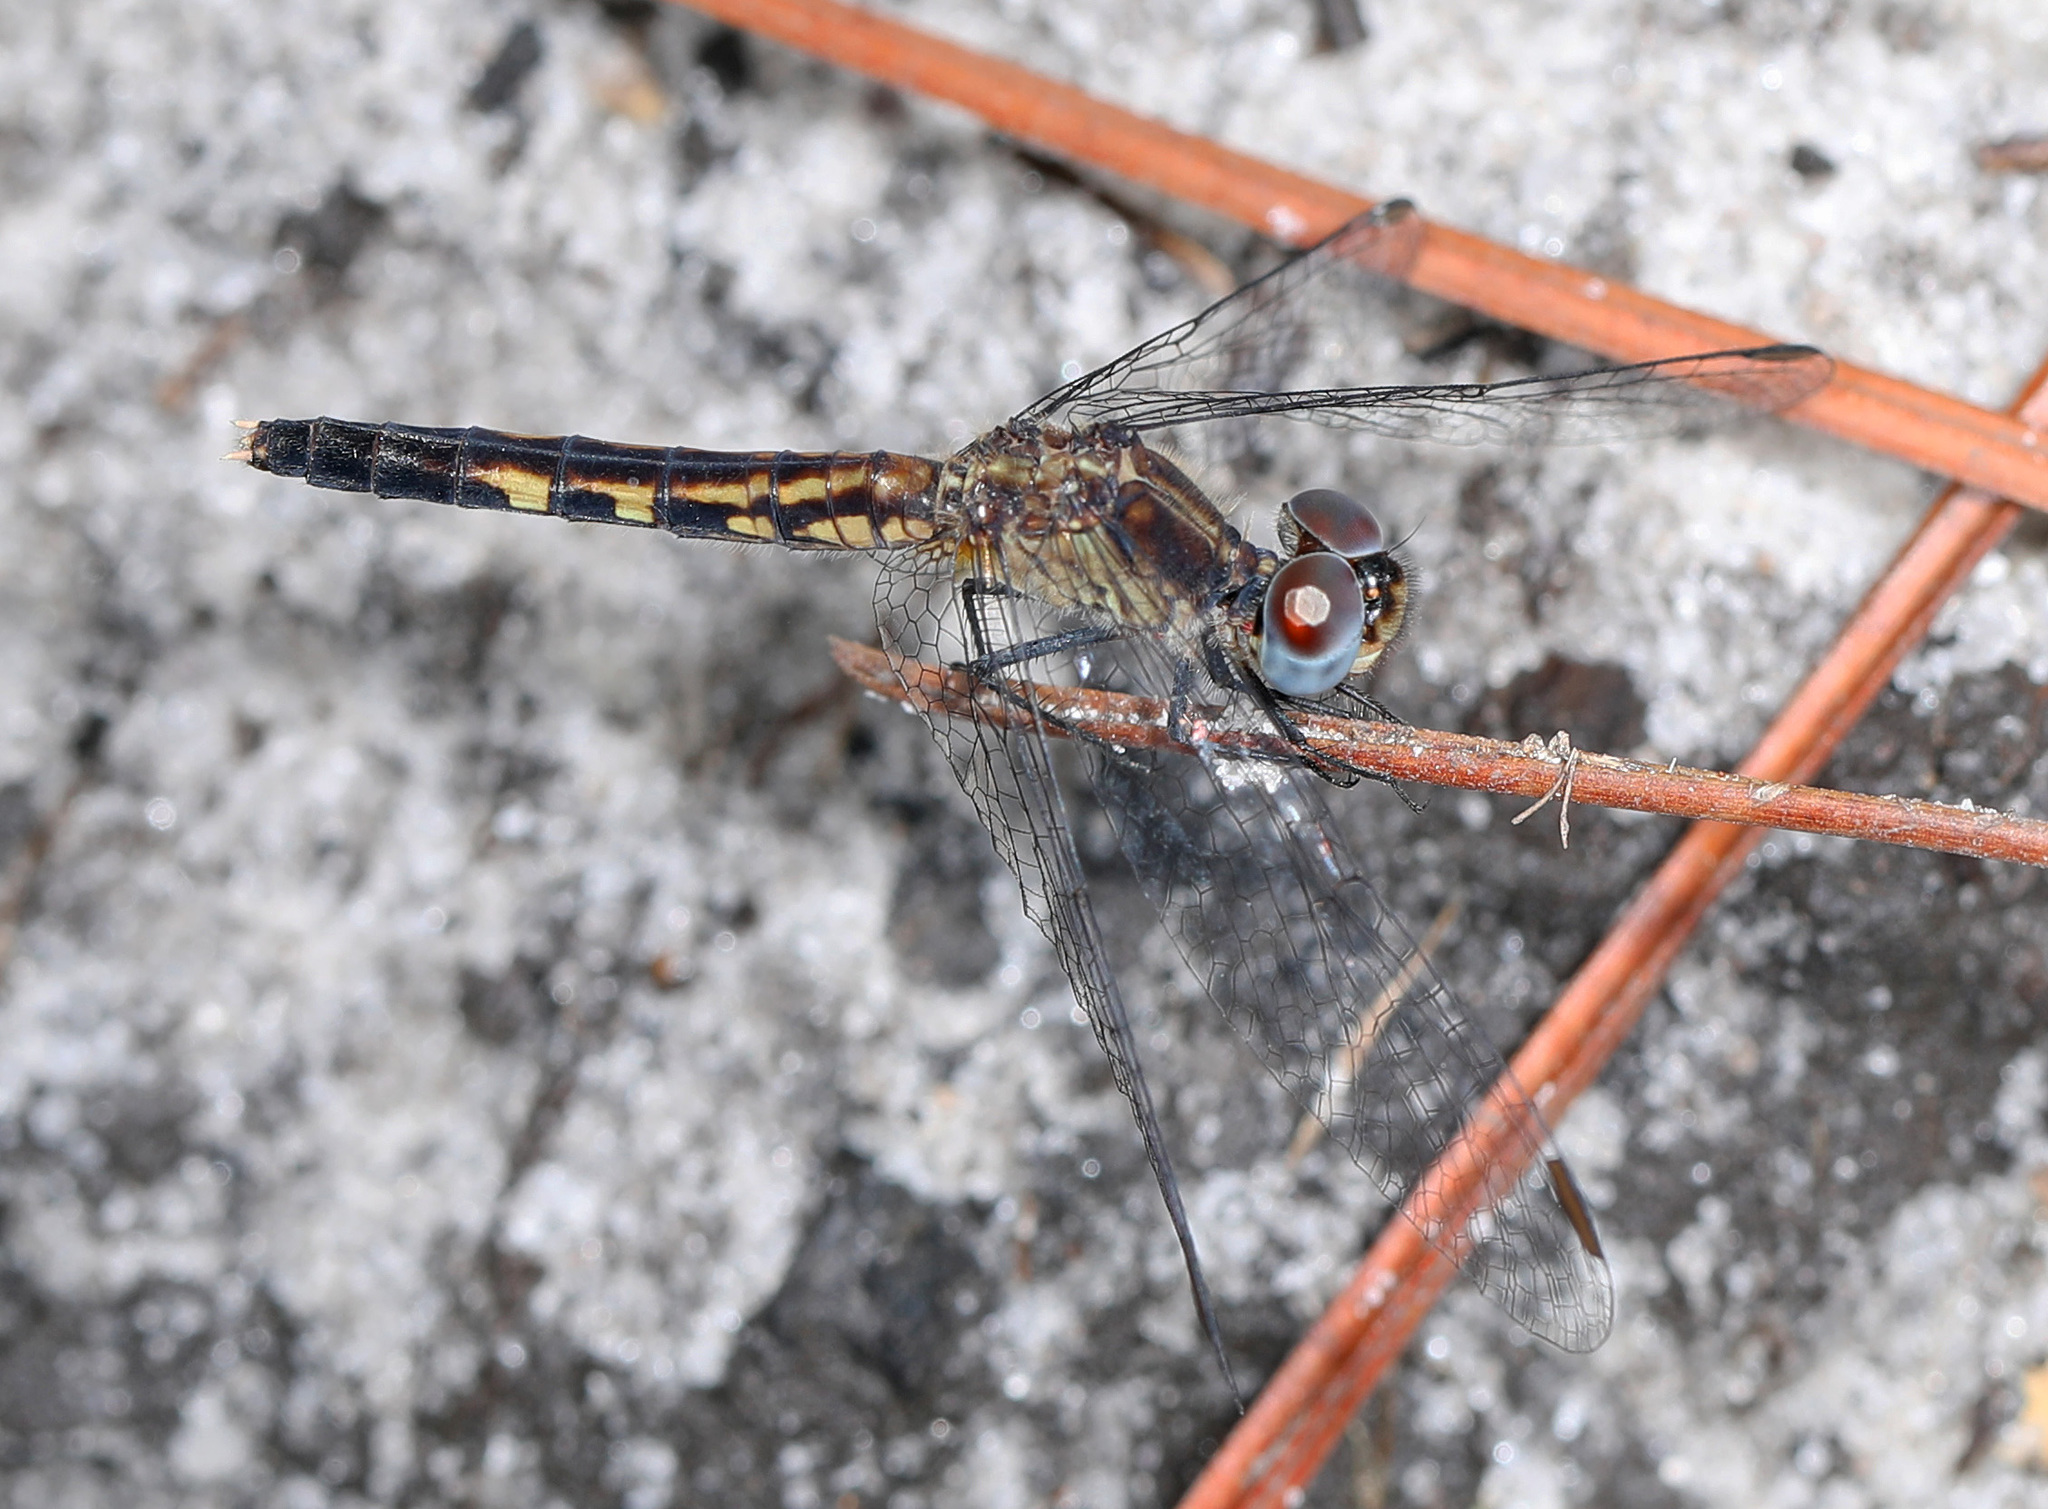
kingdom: Animalia
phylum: Arthropoda
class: Insecta
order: Odonata
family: Libellulidae
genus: Erythrodiplax
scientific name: Erythrodiplax minuscula
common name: Little blue dragonlet
